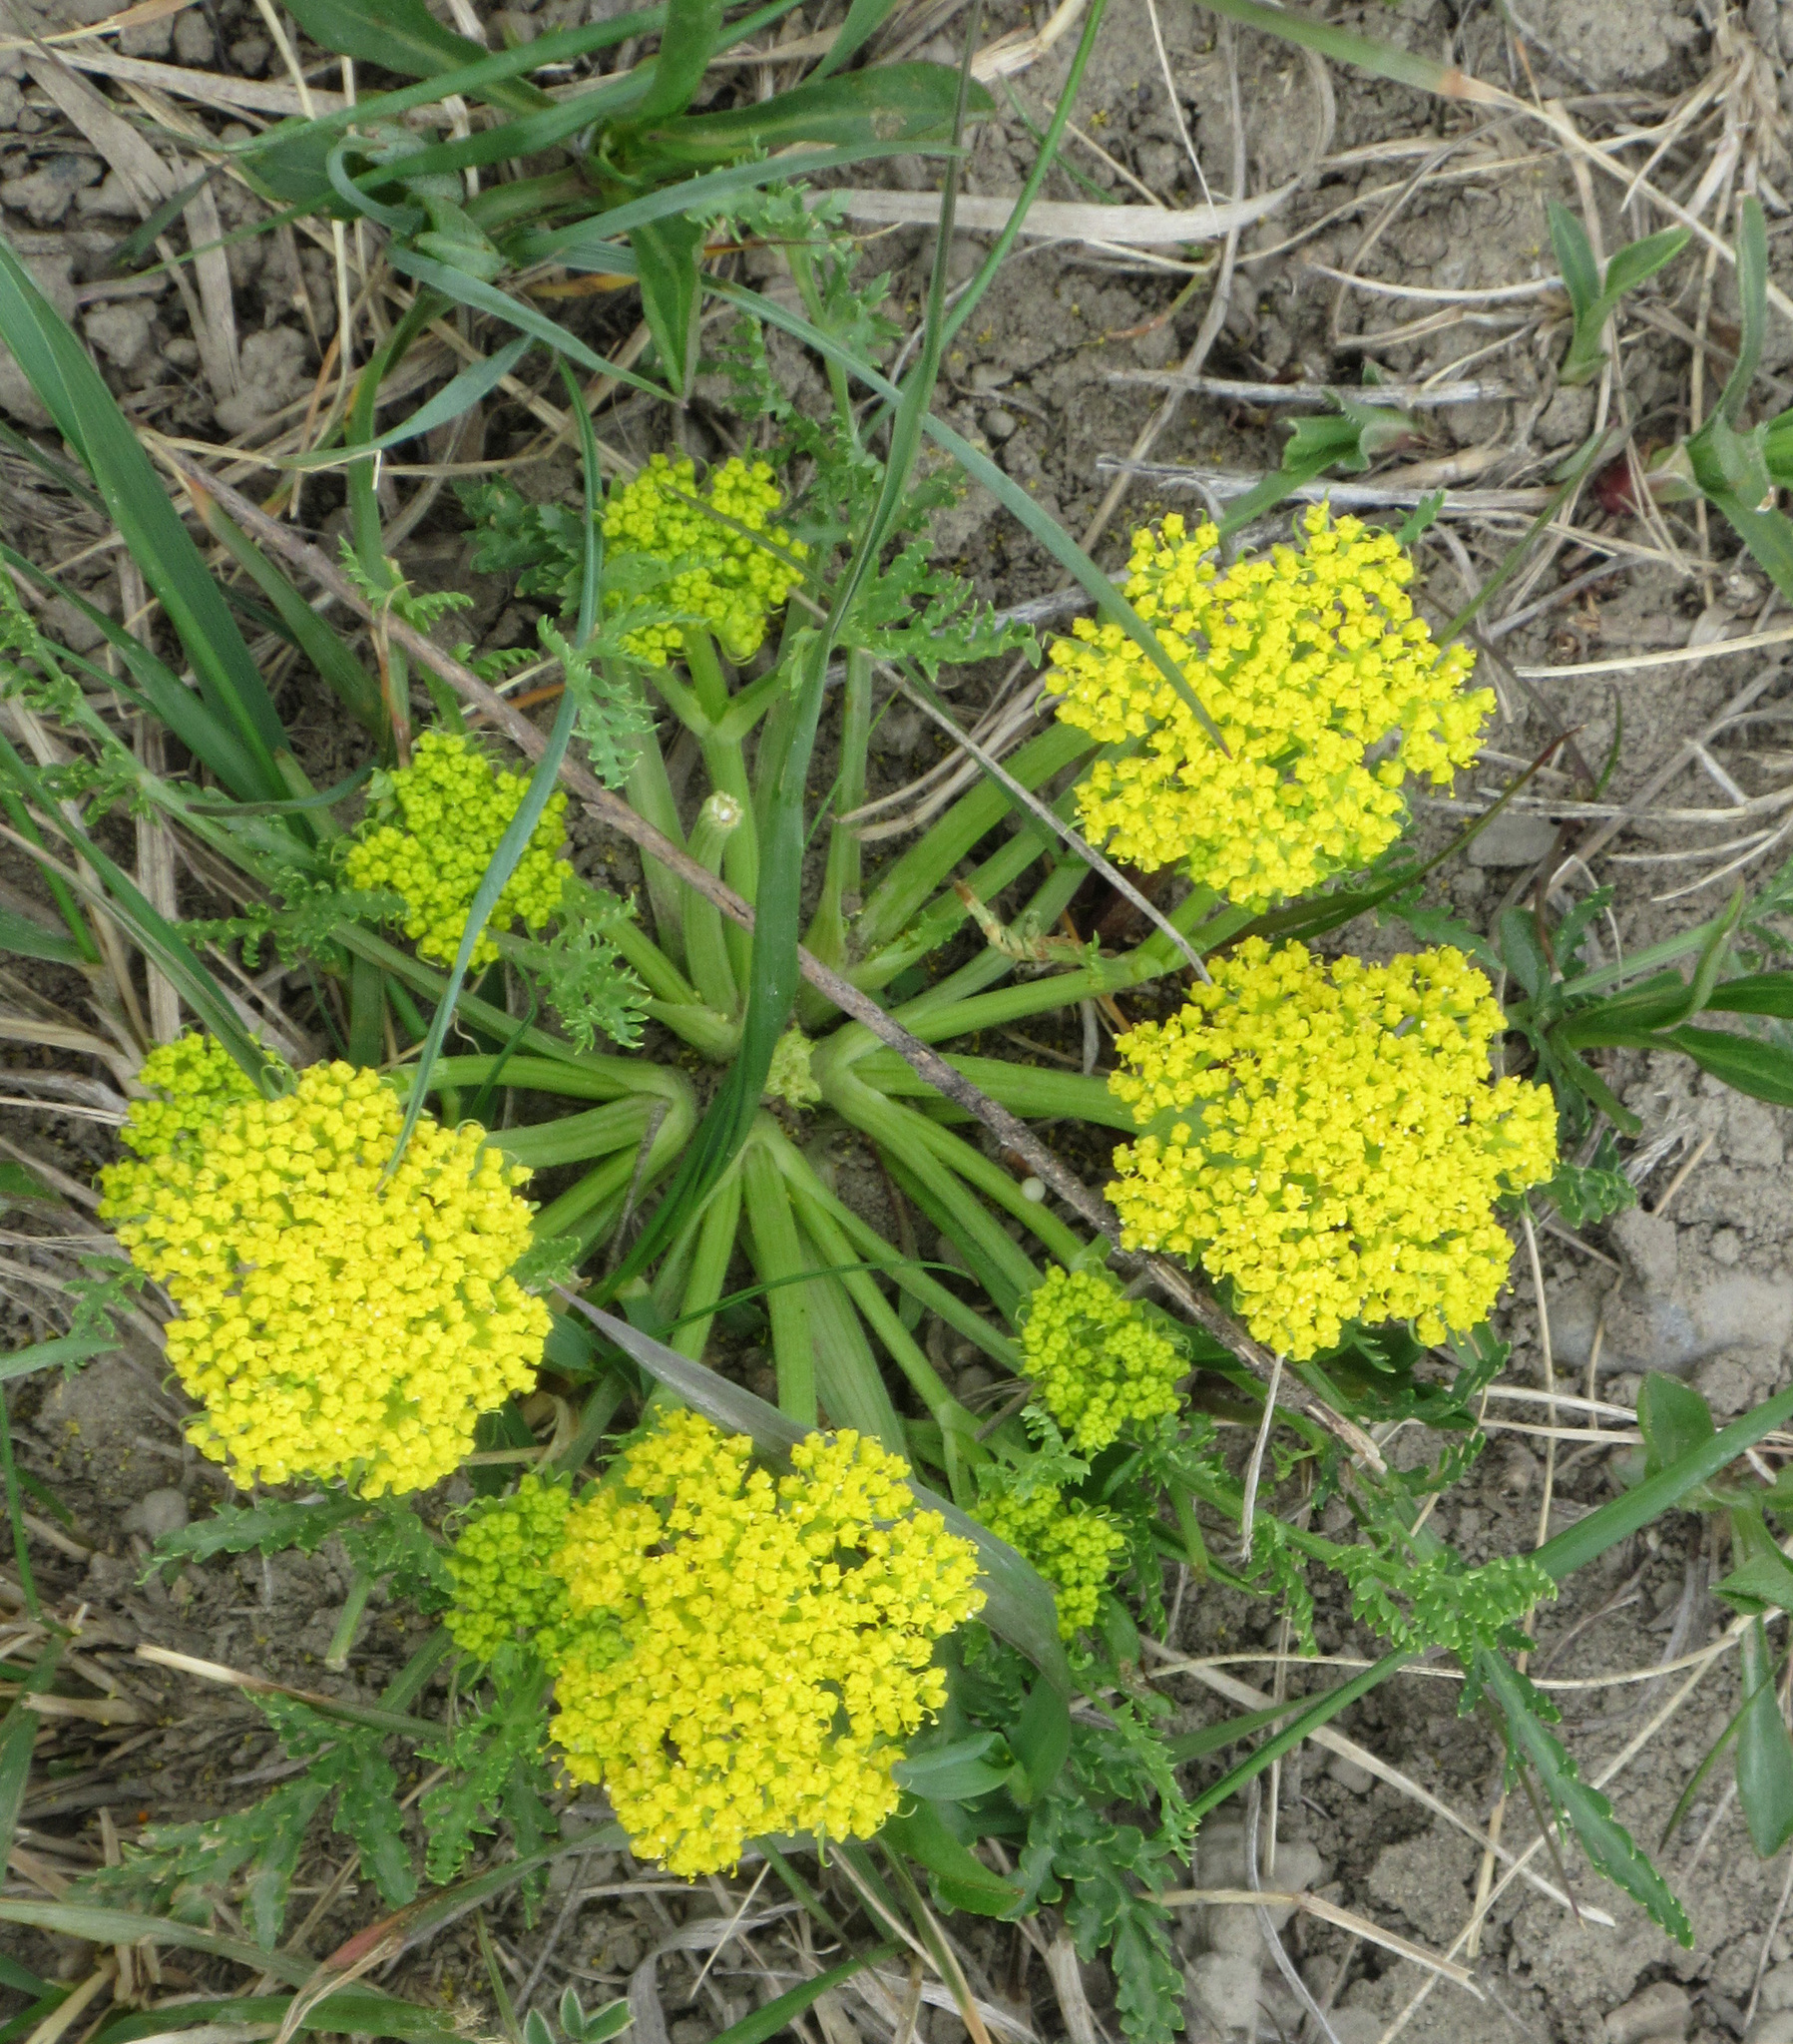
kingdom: Plantae
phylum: Tracheophyta
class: Magnoliopsida
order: Apiales
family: Apiaceae
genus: Musineon
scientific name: Musineon divaricatum
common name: Plains musineon
